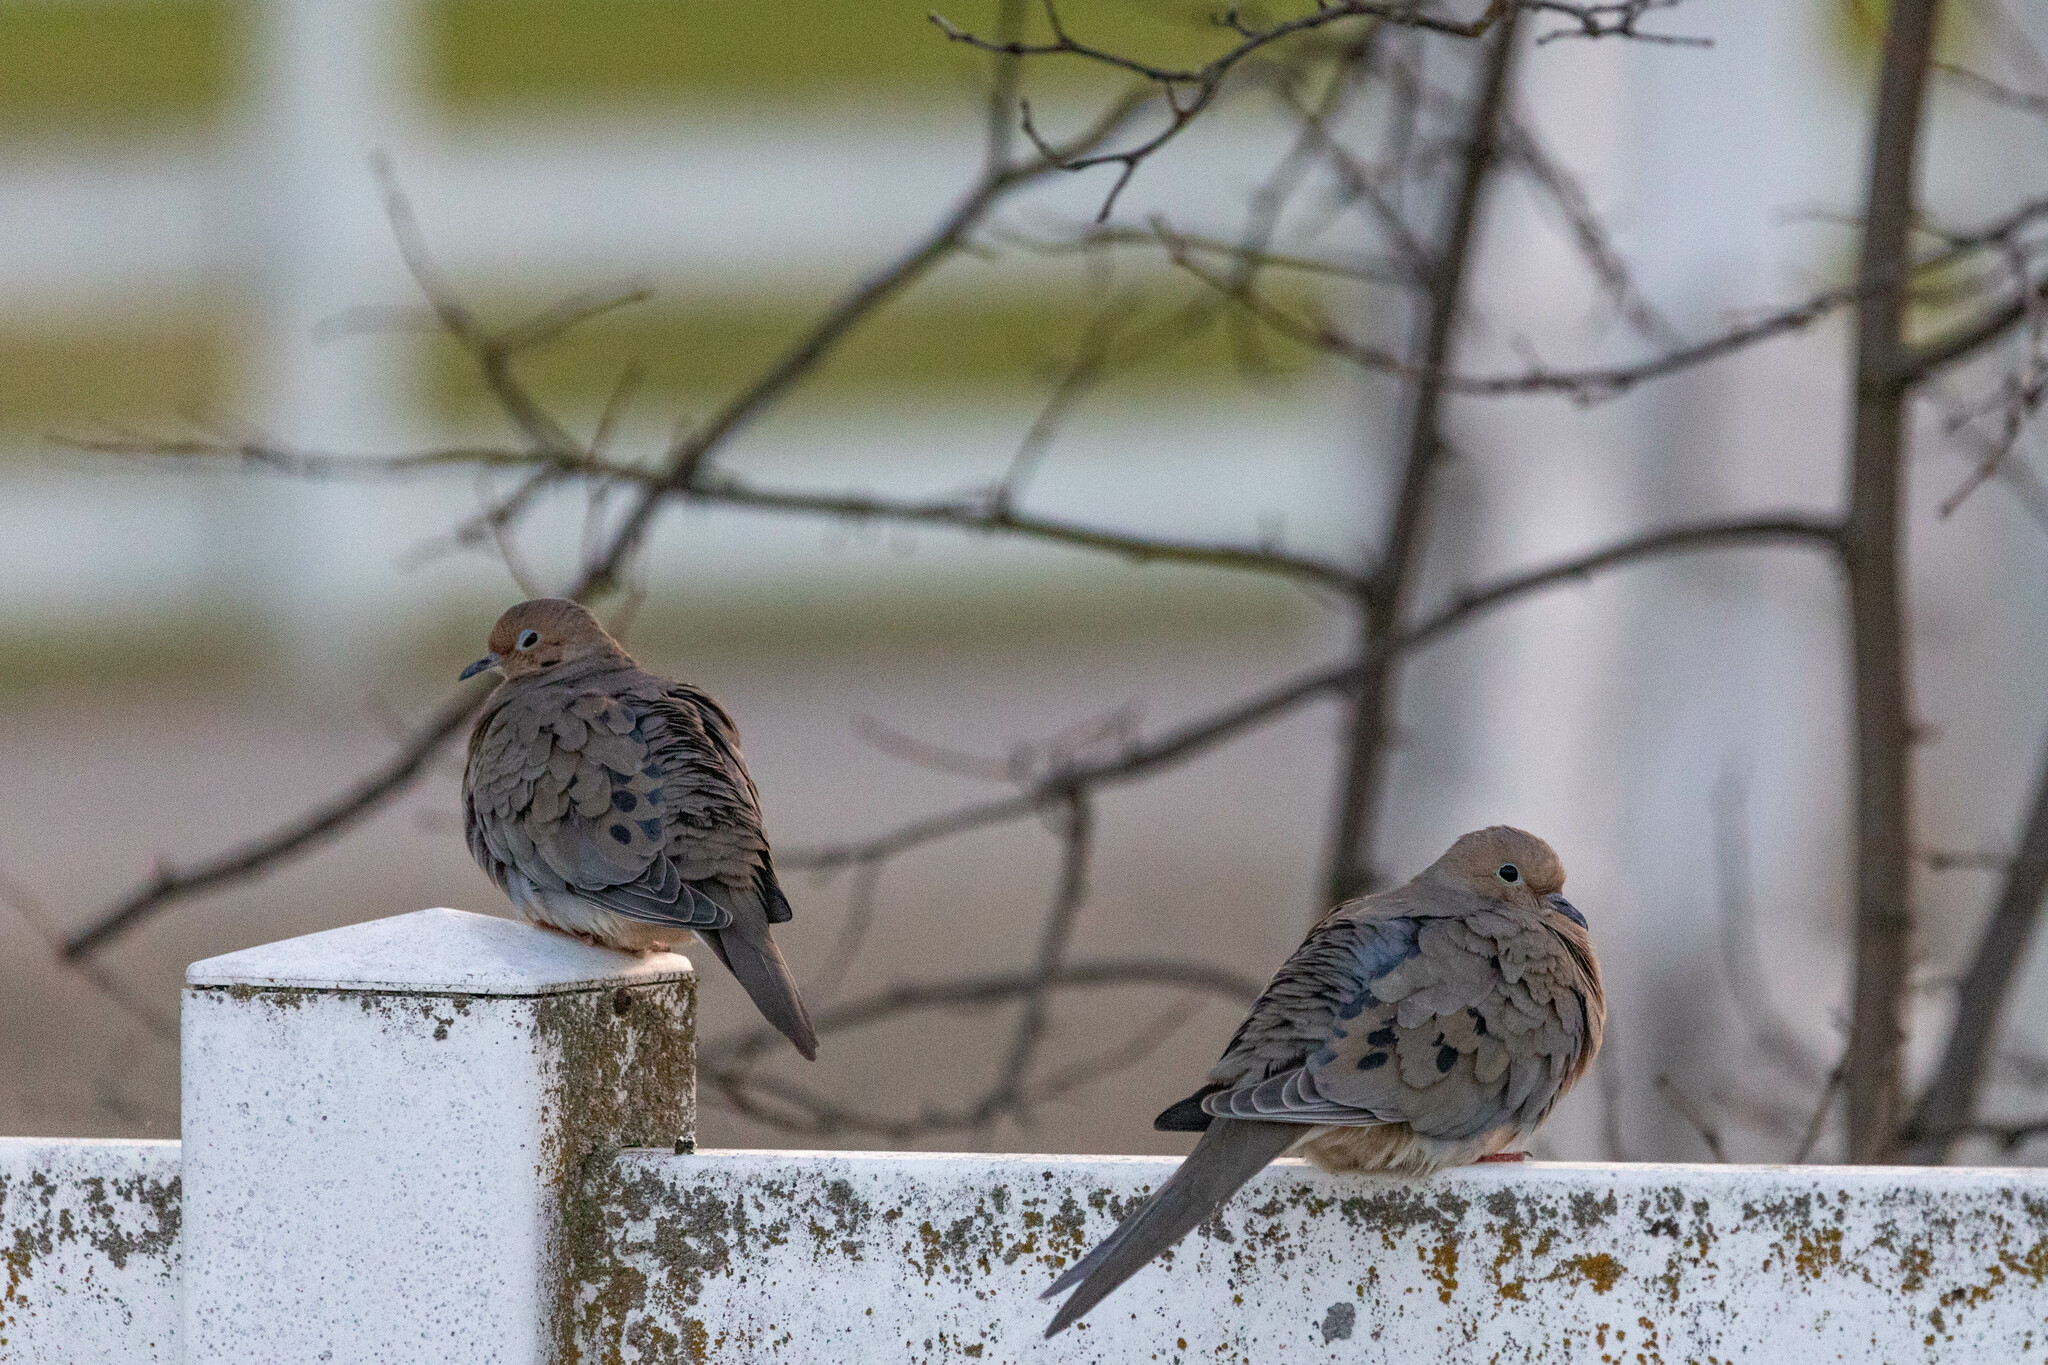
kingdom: Animalia
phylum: Chordata
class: Aves
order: Columbiformes
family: Columbidae
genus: Zenaida
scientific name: Zenaida macroura
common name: Mourning dove
